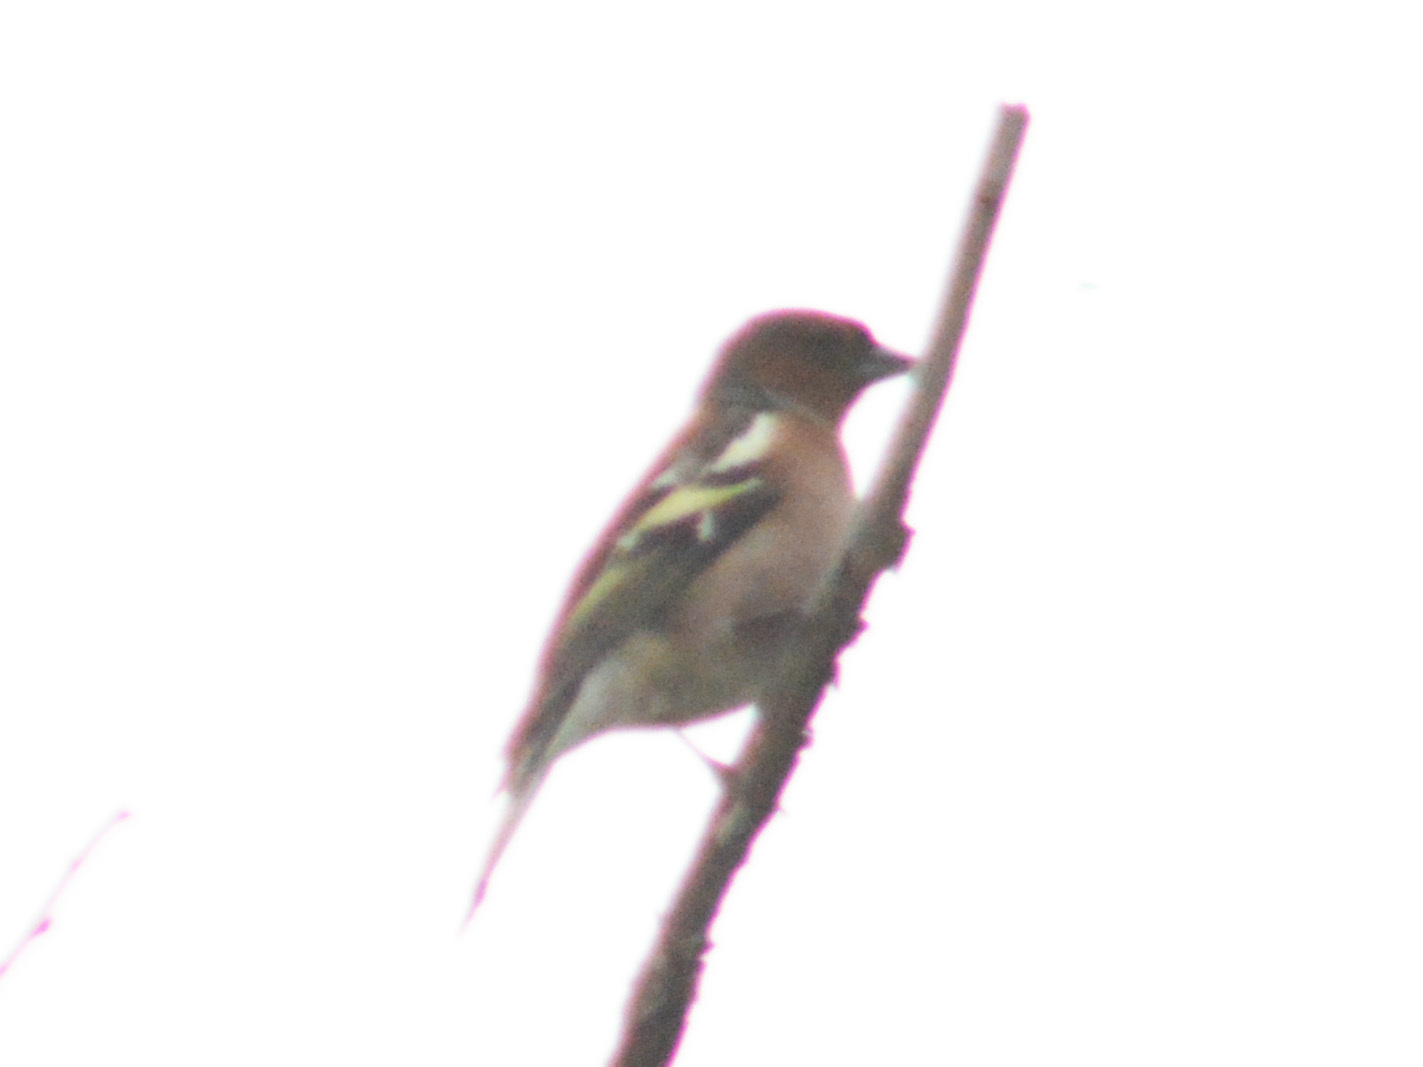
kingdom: Animalia
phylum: Chordata
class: Aves
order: Passeriformes
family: Fringillidae
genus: Fringilla
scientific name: Fringilla coelebs
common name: Common chaffinch
